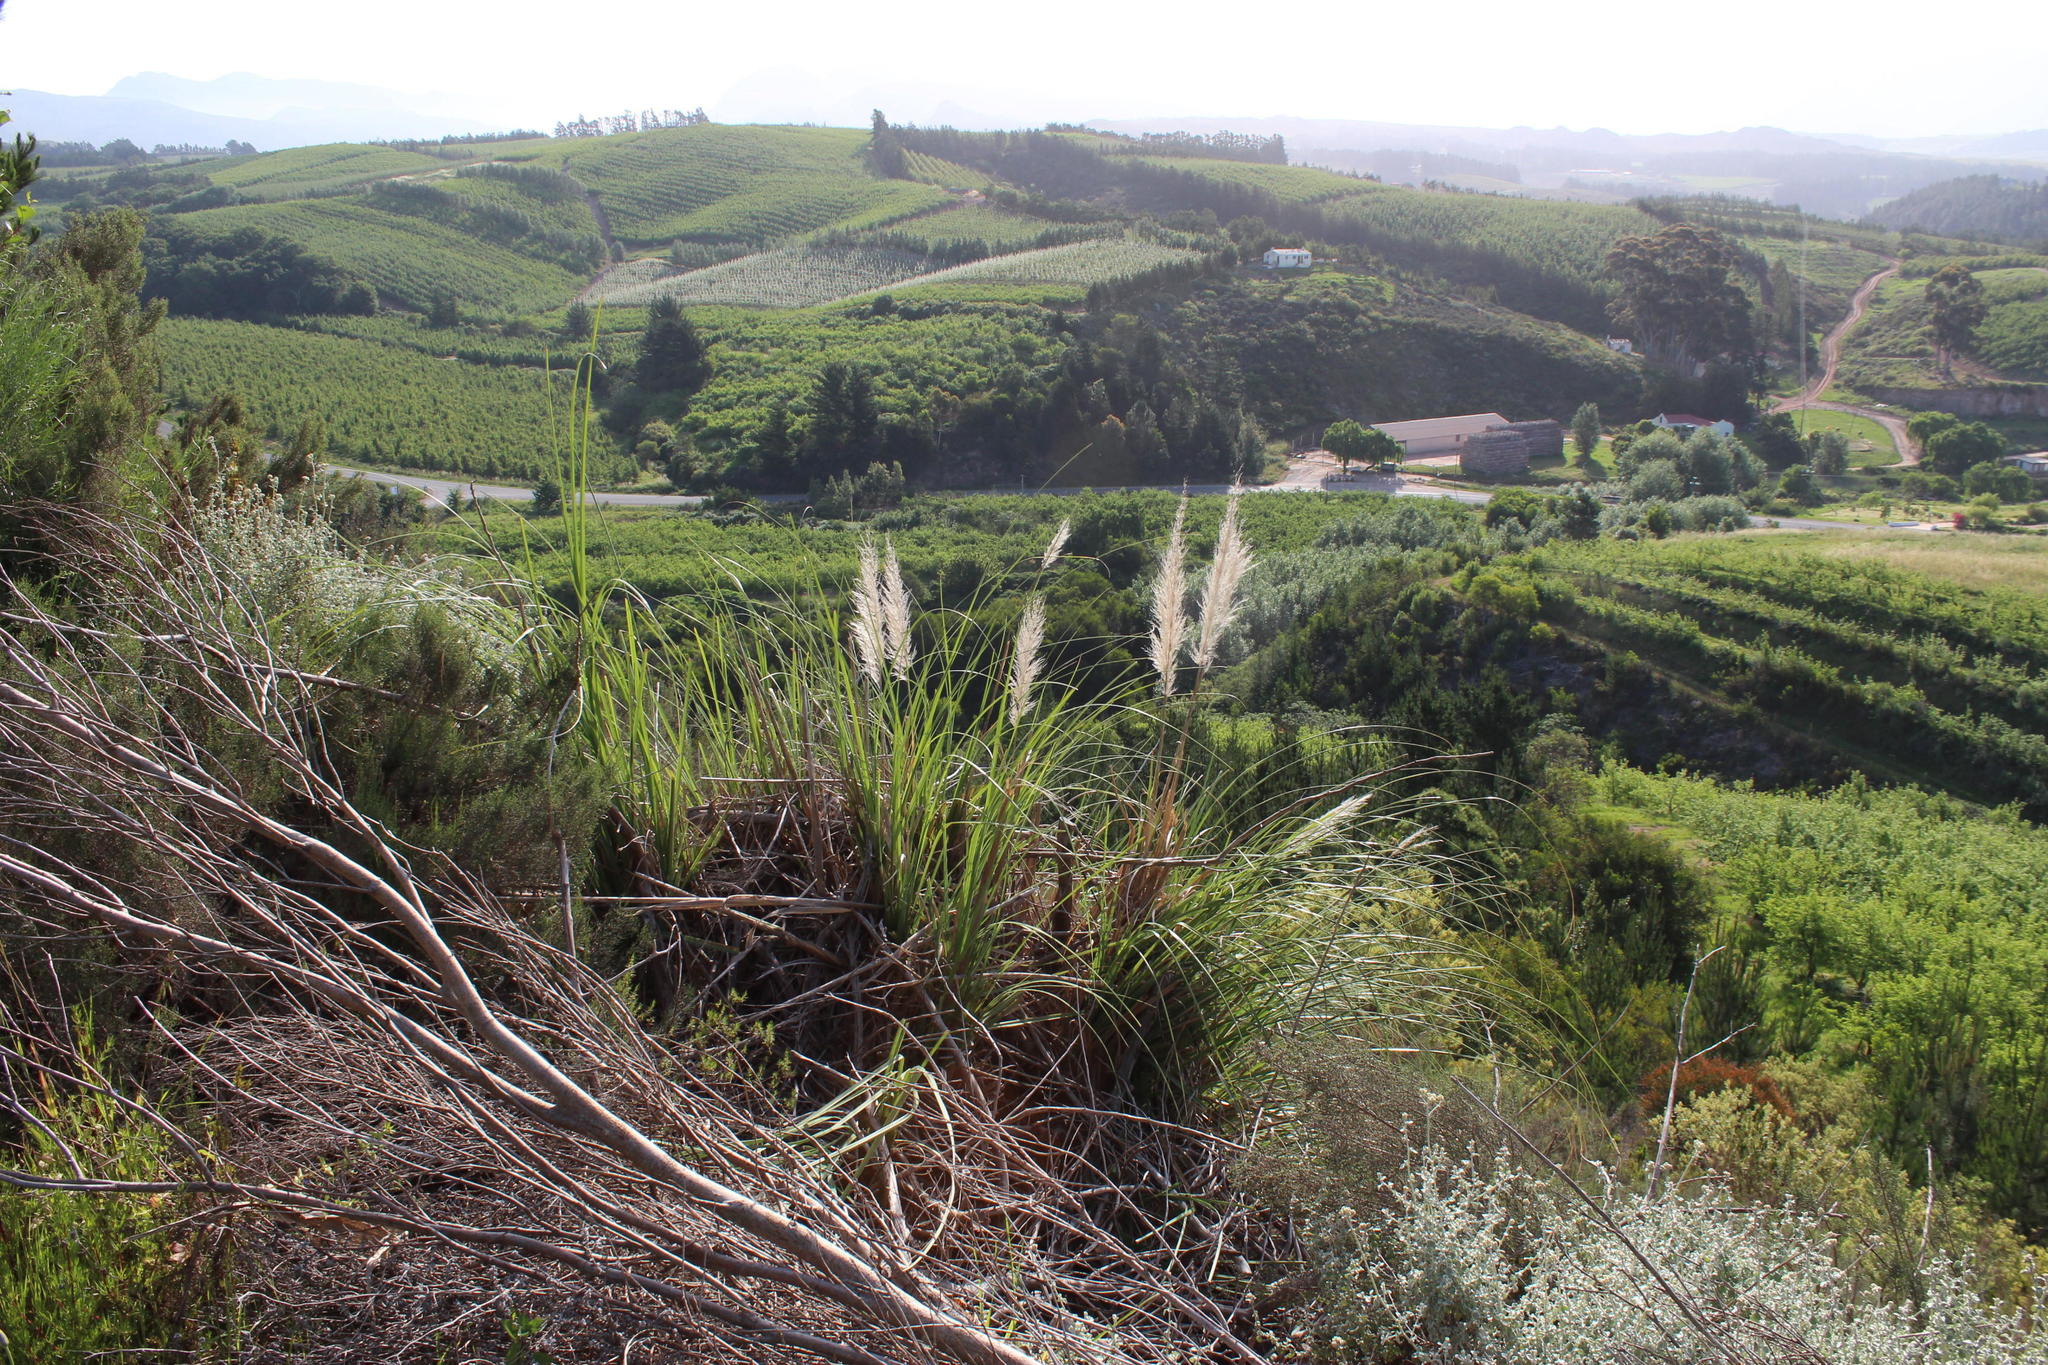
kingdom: Plantae
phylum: Tracheophyta
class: Liliopsida
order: Poales
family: Poaceae
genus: Cortaderia
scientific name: Cortaderia selloana
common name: Uruguayan pampas grass
